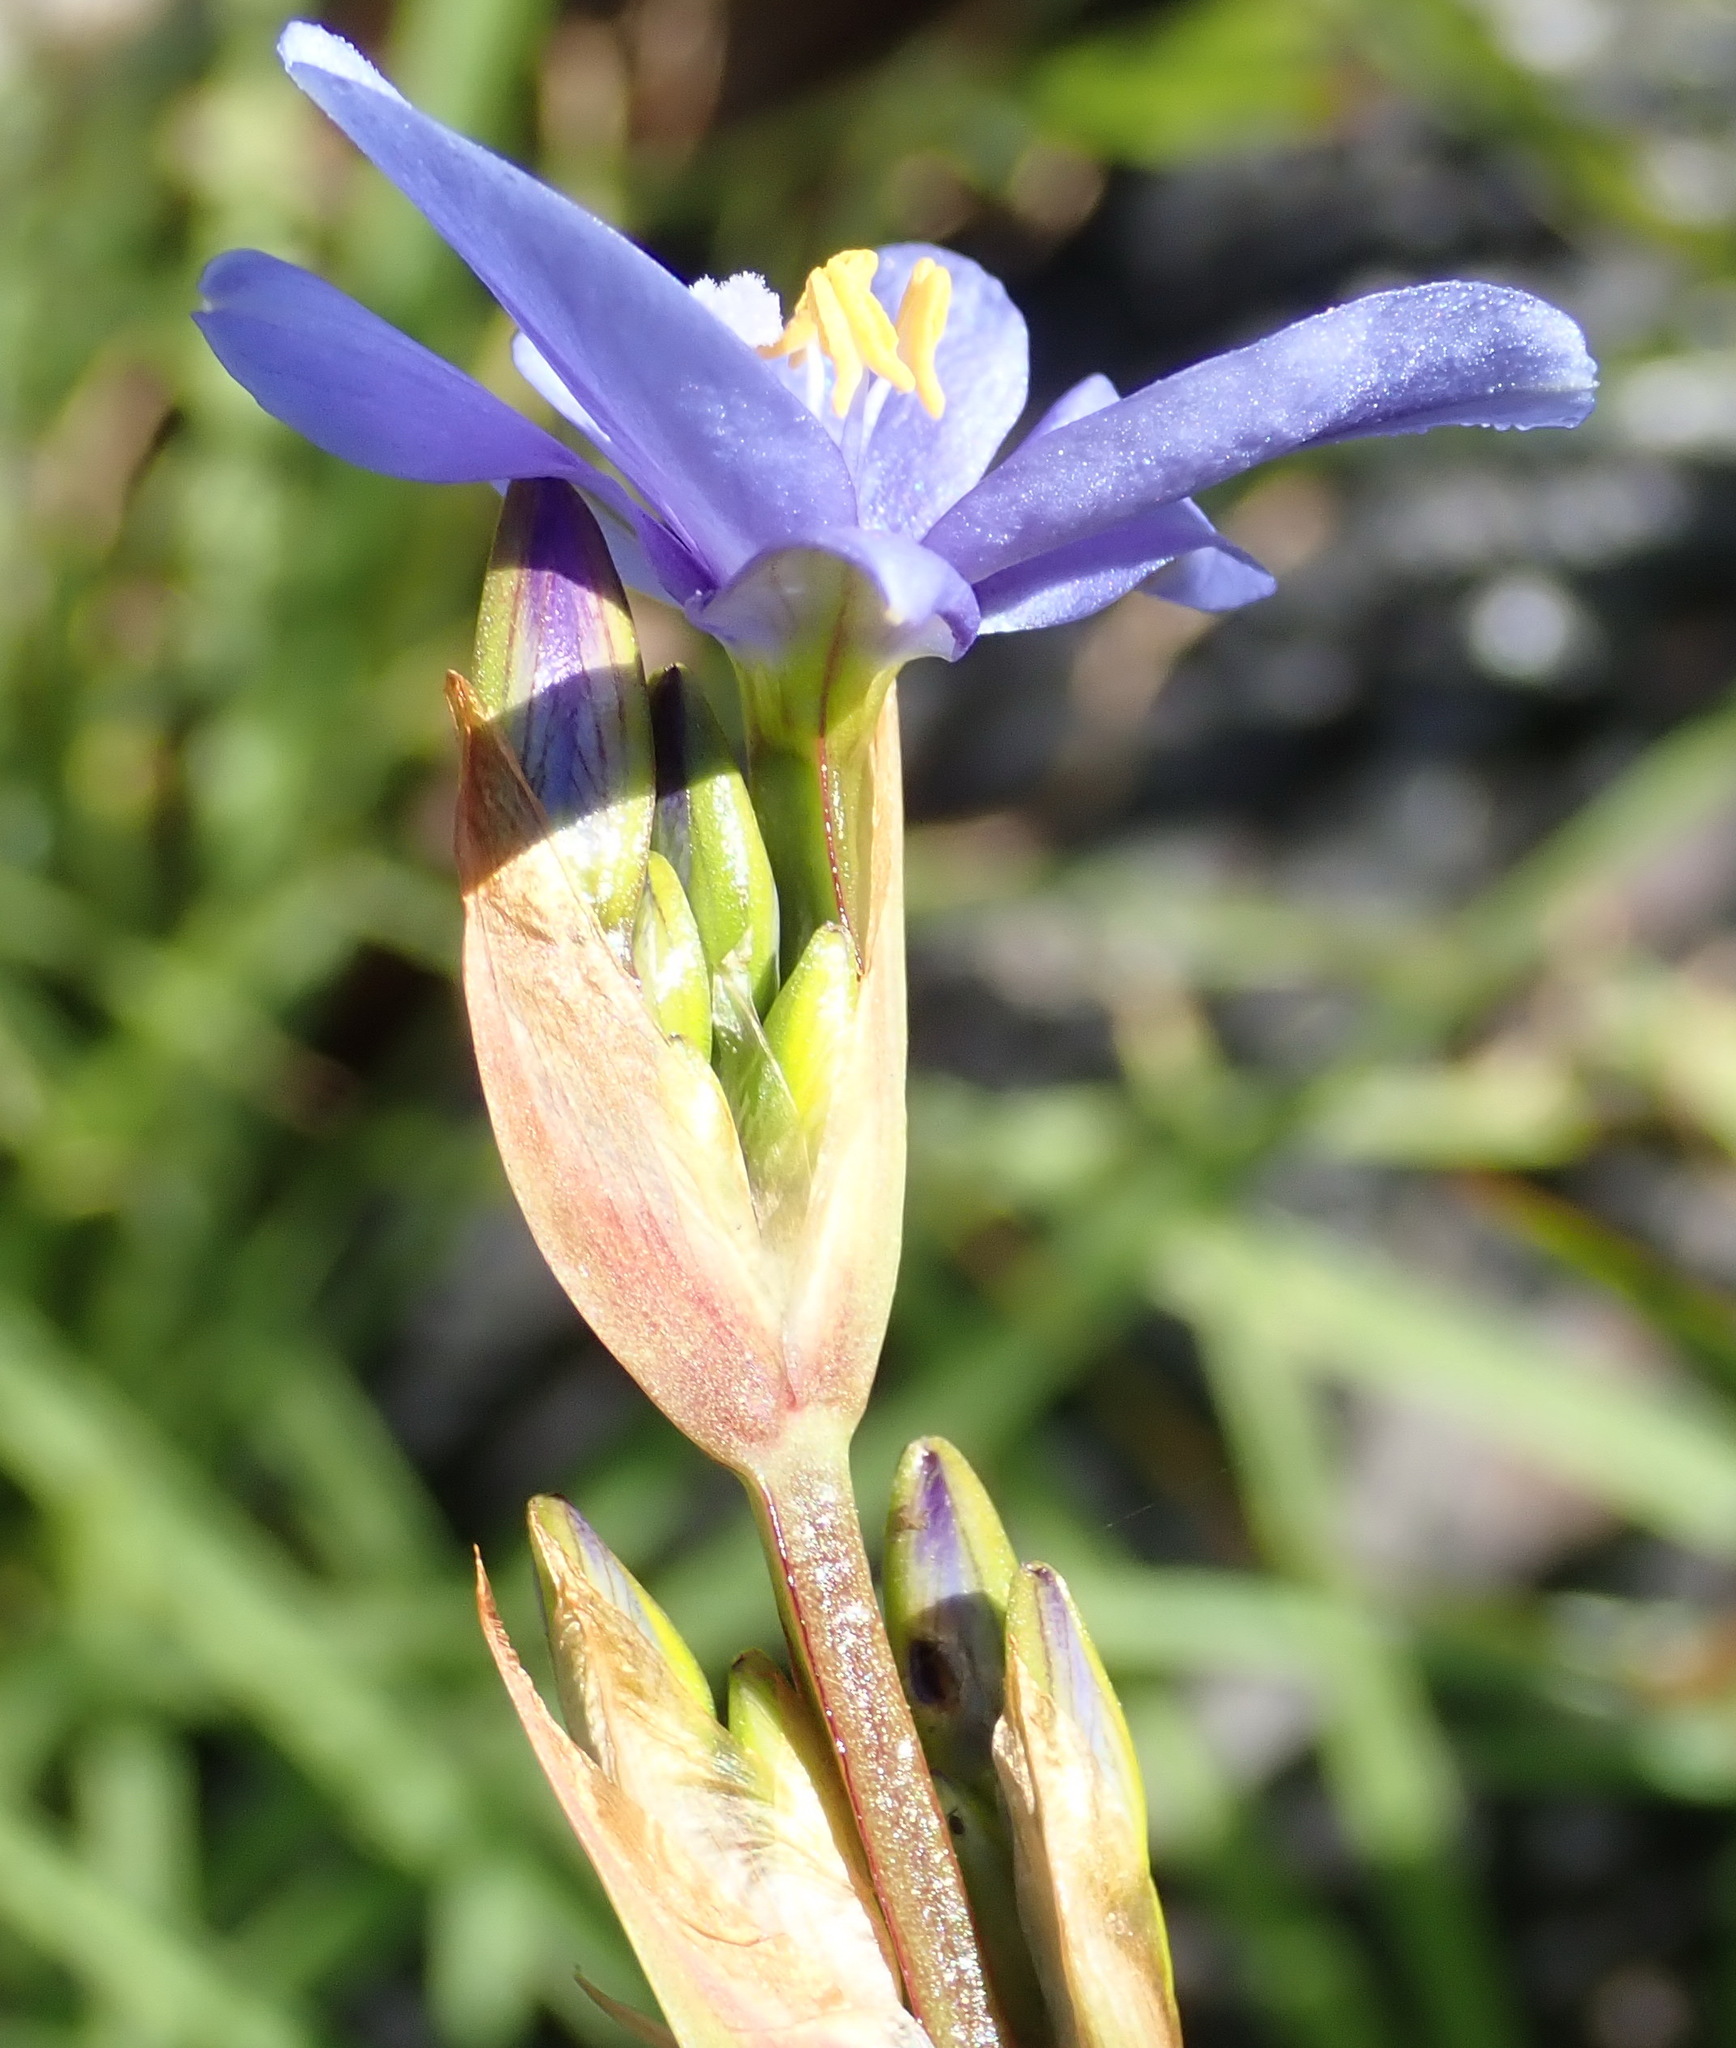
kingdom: Plantae
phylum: Tracheophyta
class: Liliopsida
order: Asparagales
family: Iridaceae
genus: Aristea
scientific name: Aristea ecklonii
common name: Blue corn-lily
